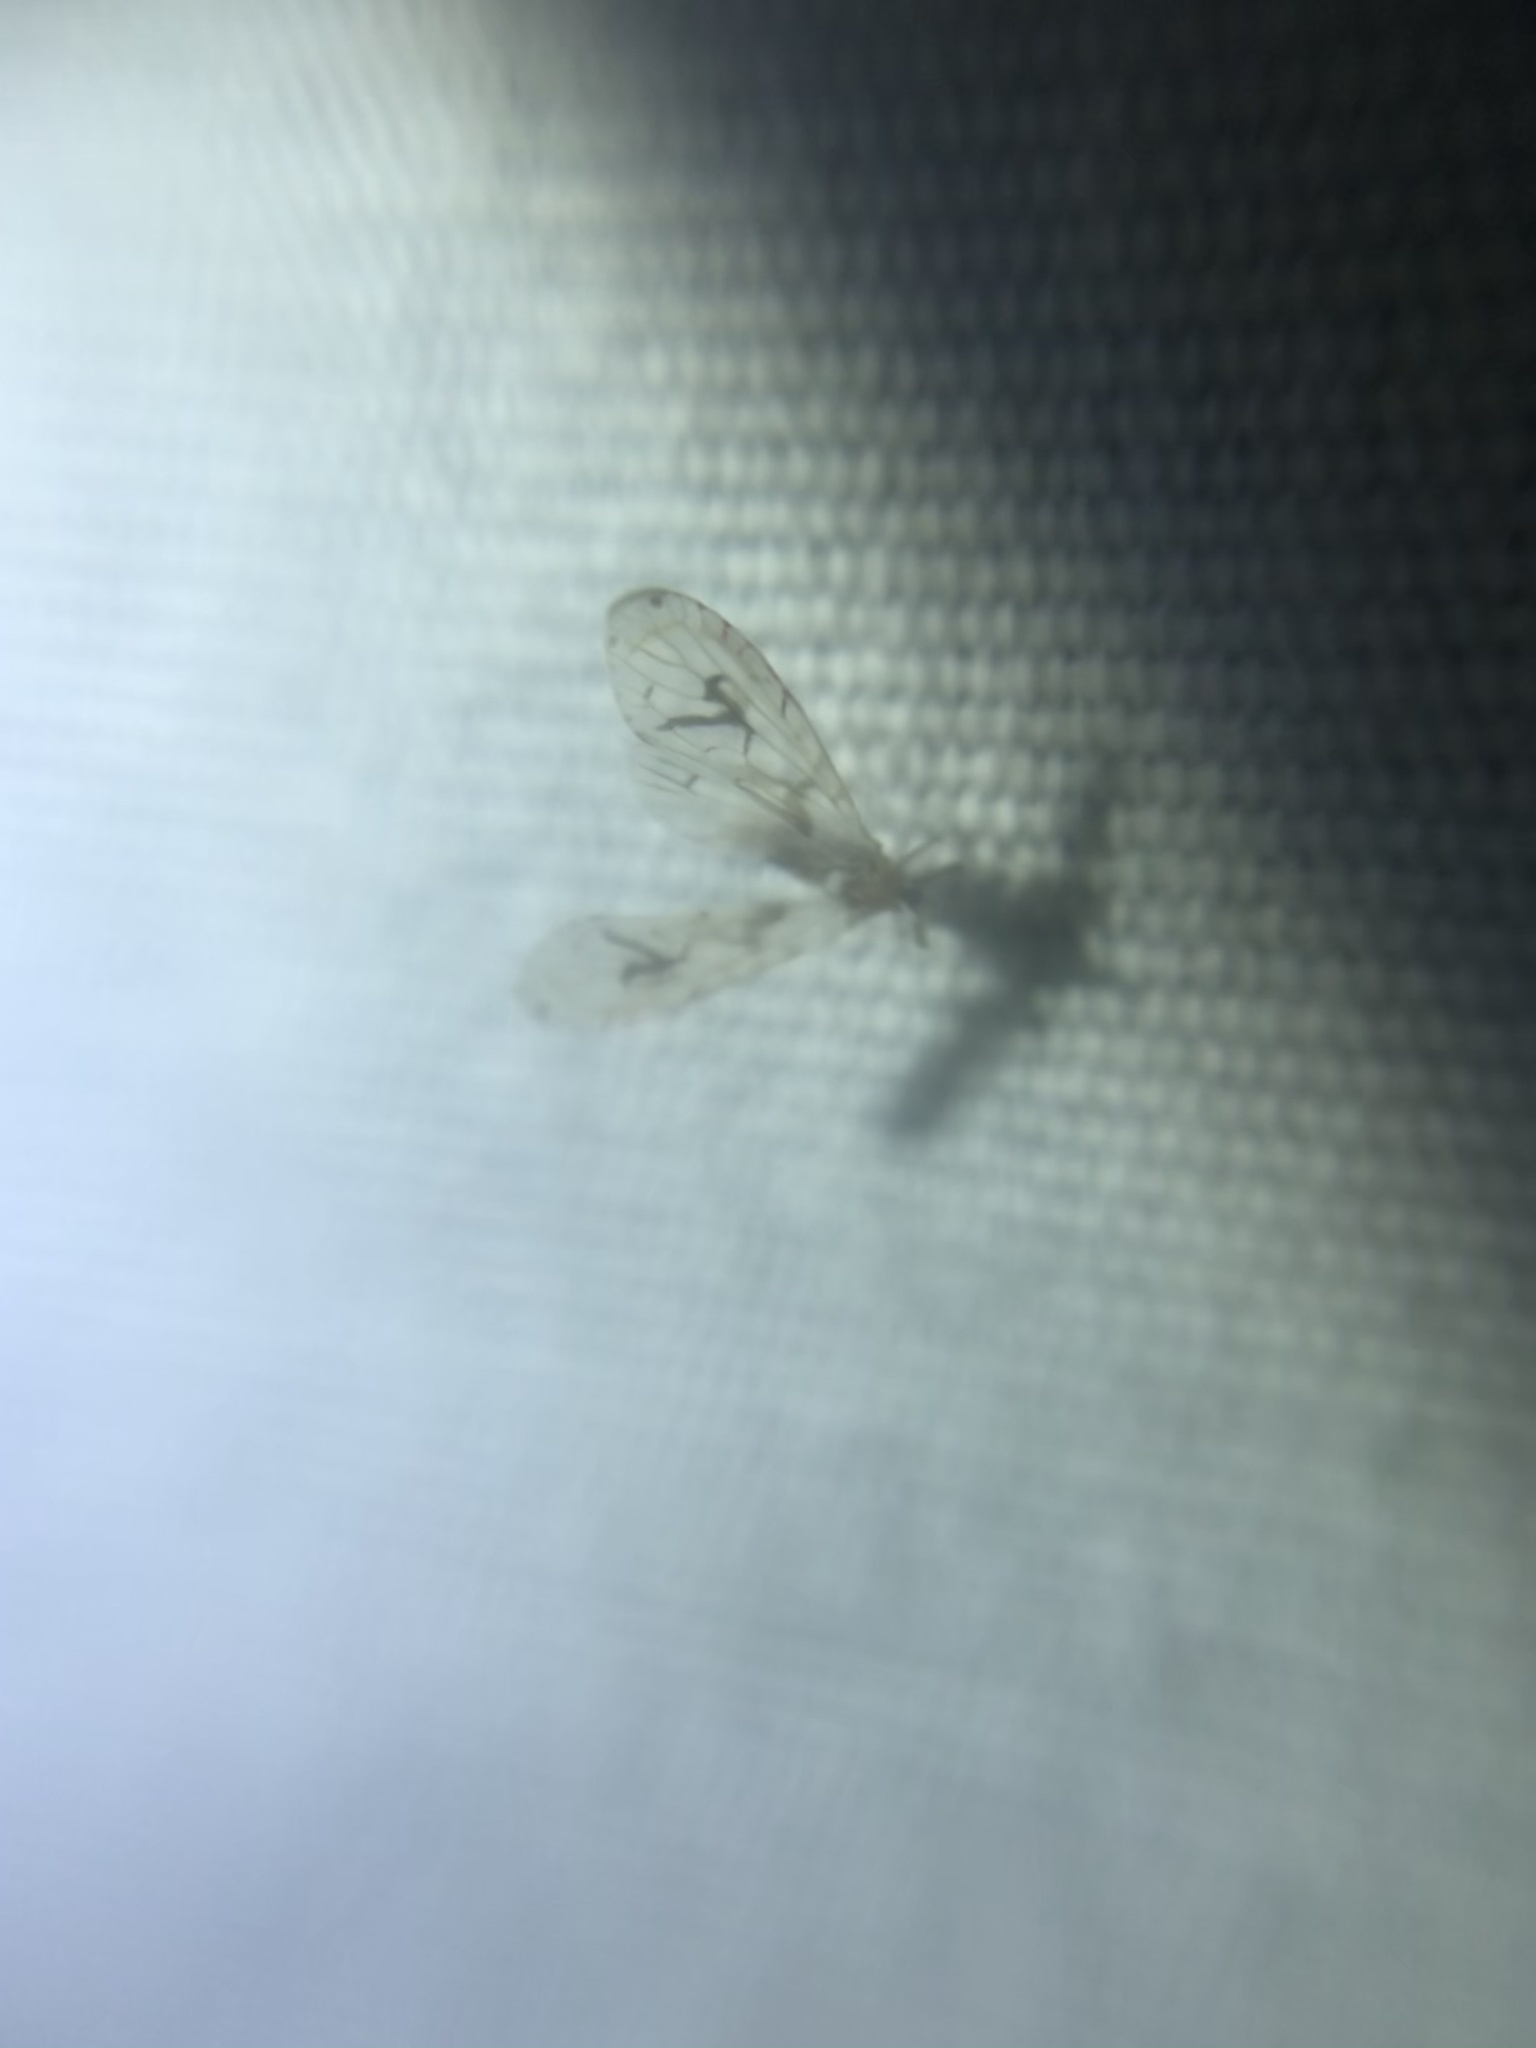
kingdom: Animalia
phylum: Arthropoda
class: Insecta
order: Hemiptera
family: Derbidae
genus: Anotia
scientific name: Anotia robertsonii
